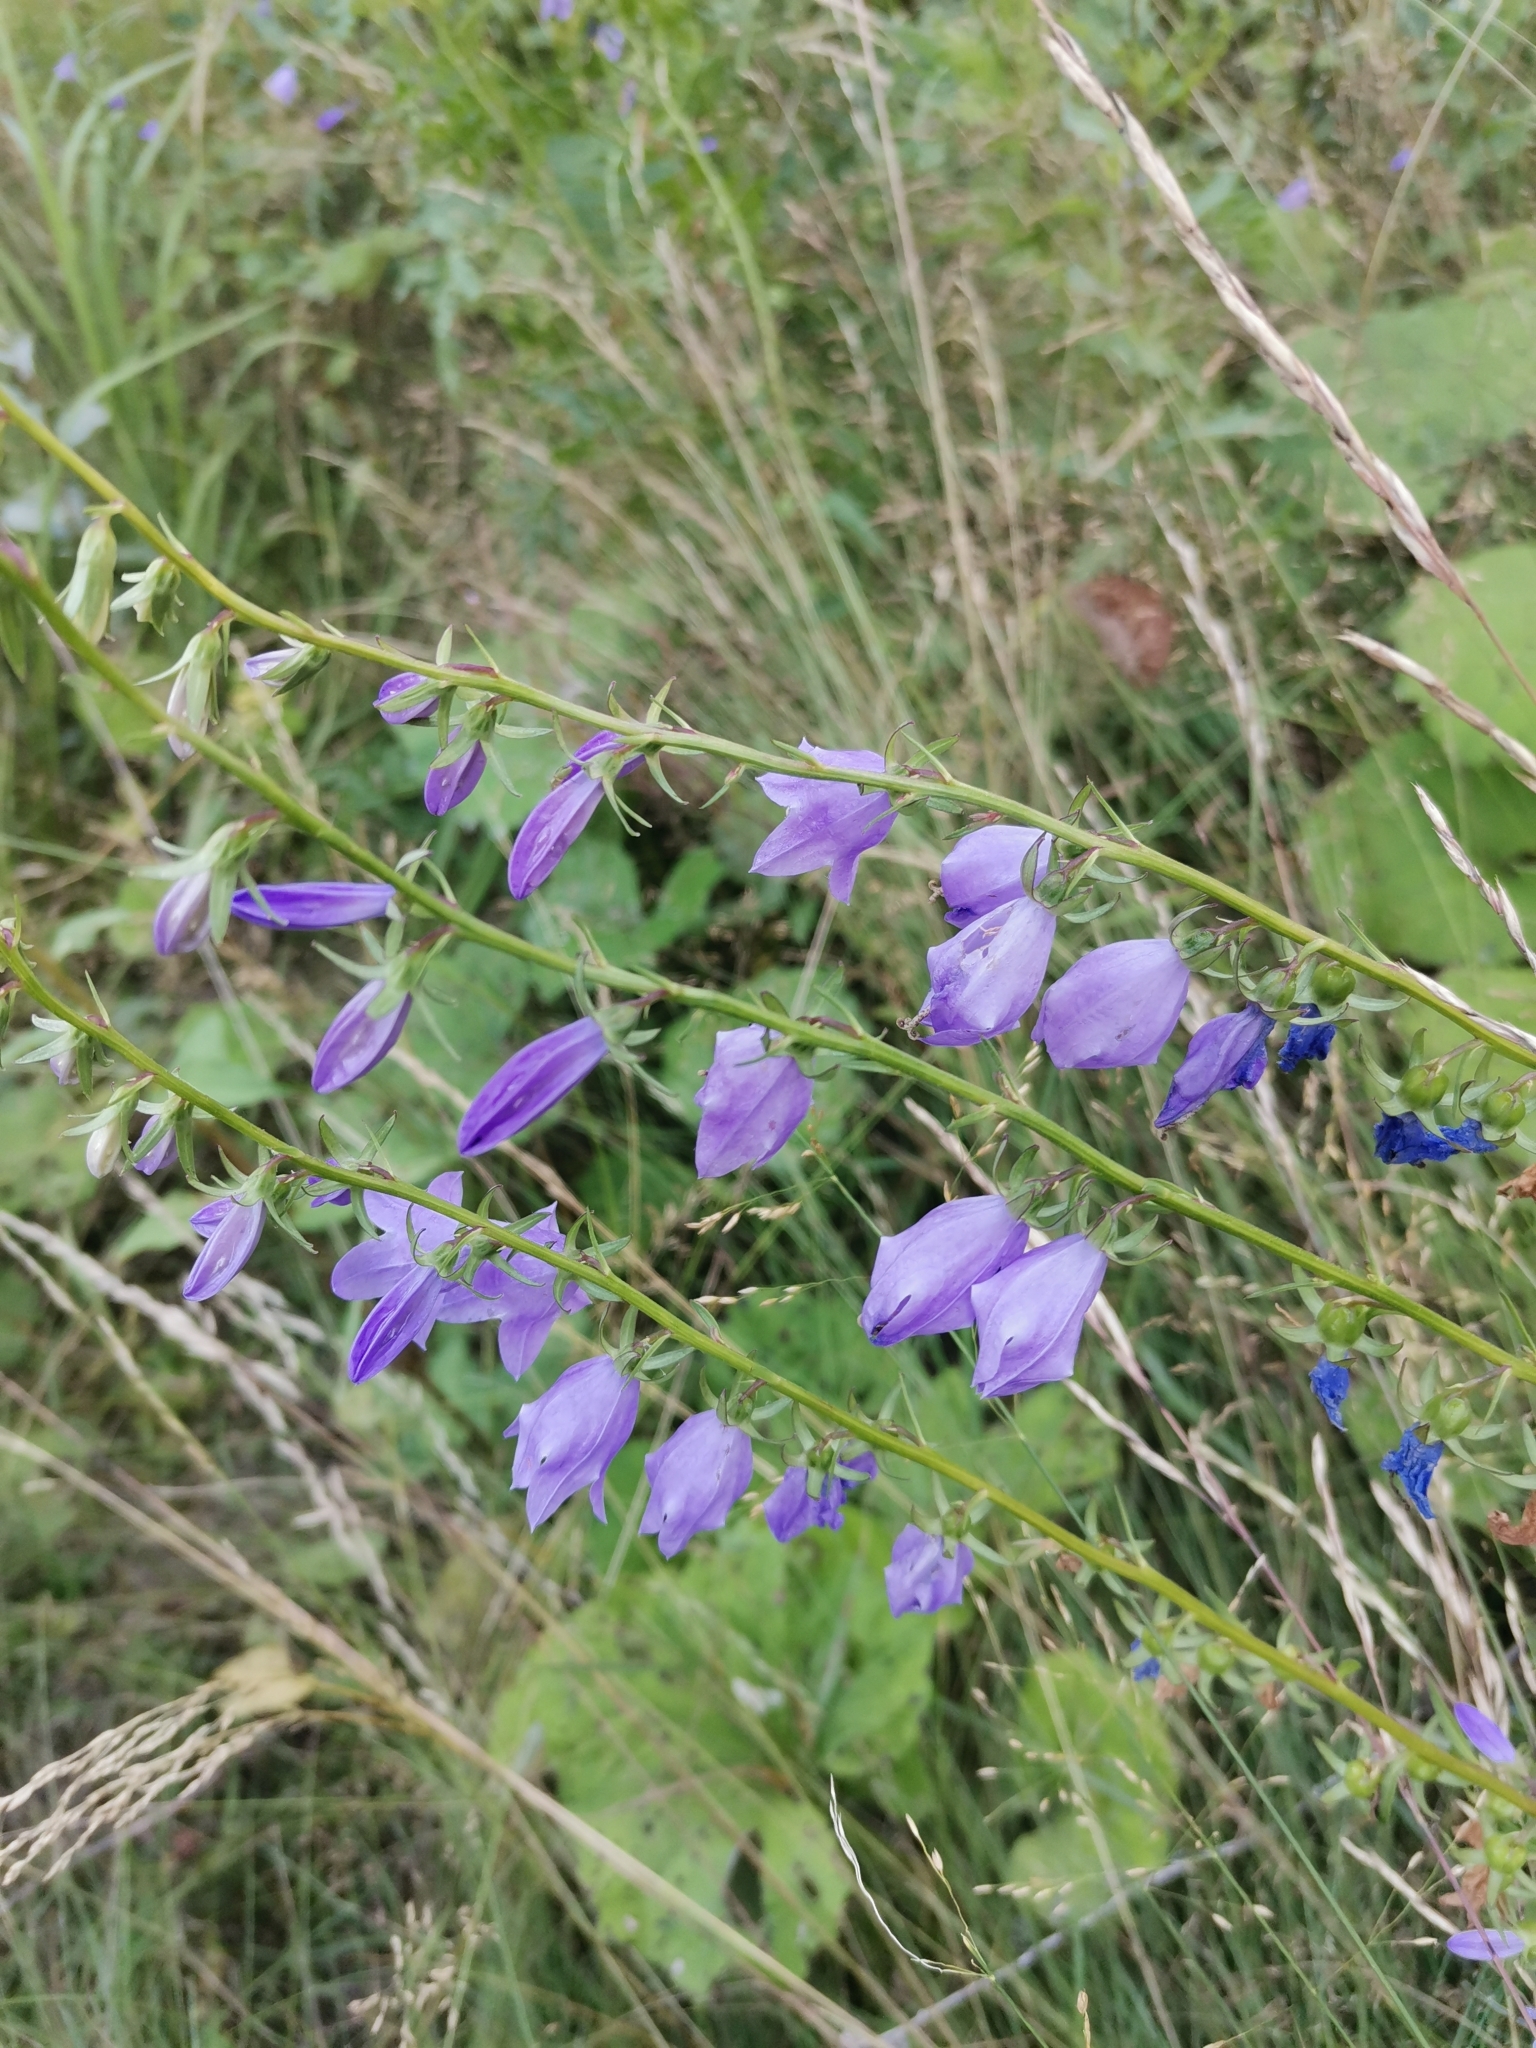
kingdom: Plantae
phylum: Tracheophyta
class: Magnoliopsida
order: Asterales
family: Campanulaceae
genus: Campanula
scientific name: Campanula rapunculoides
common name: Creeping bellflower
